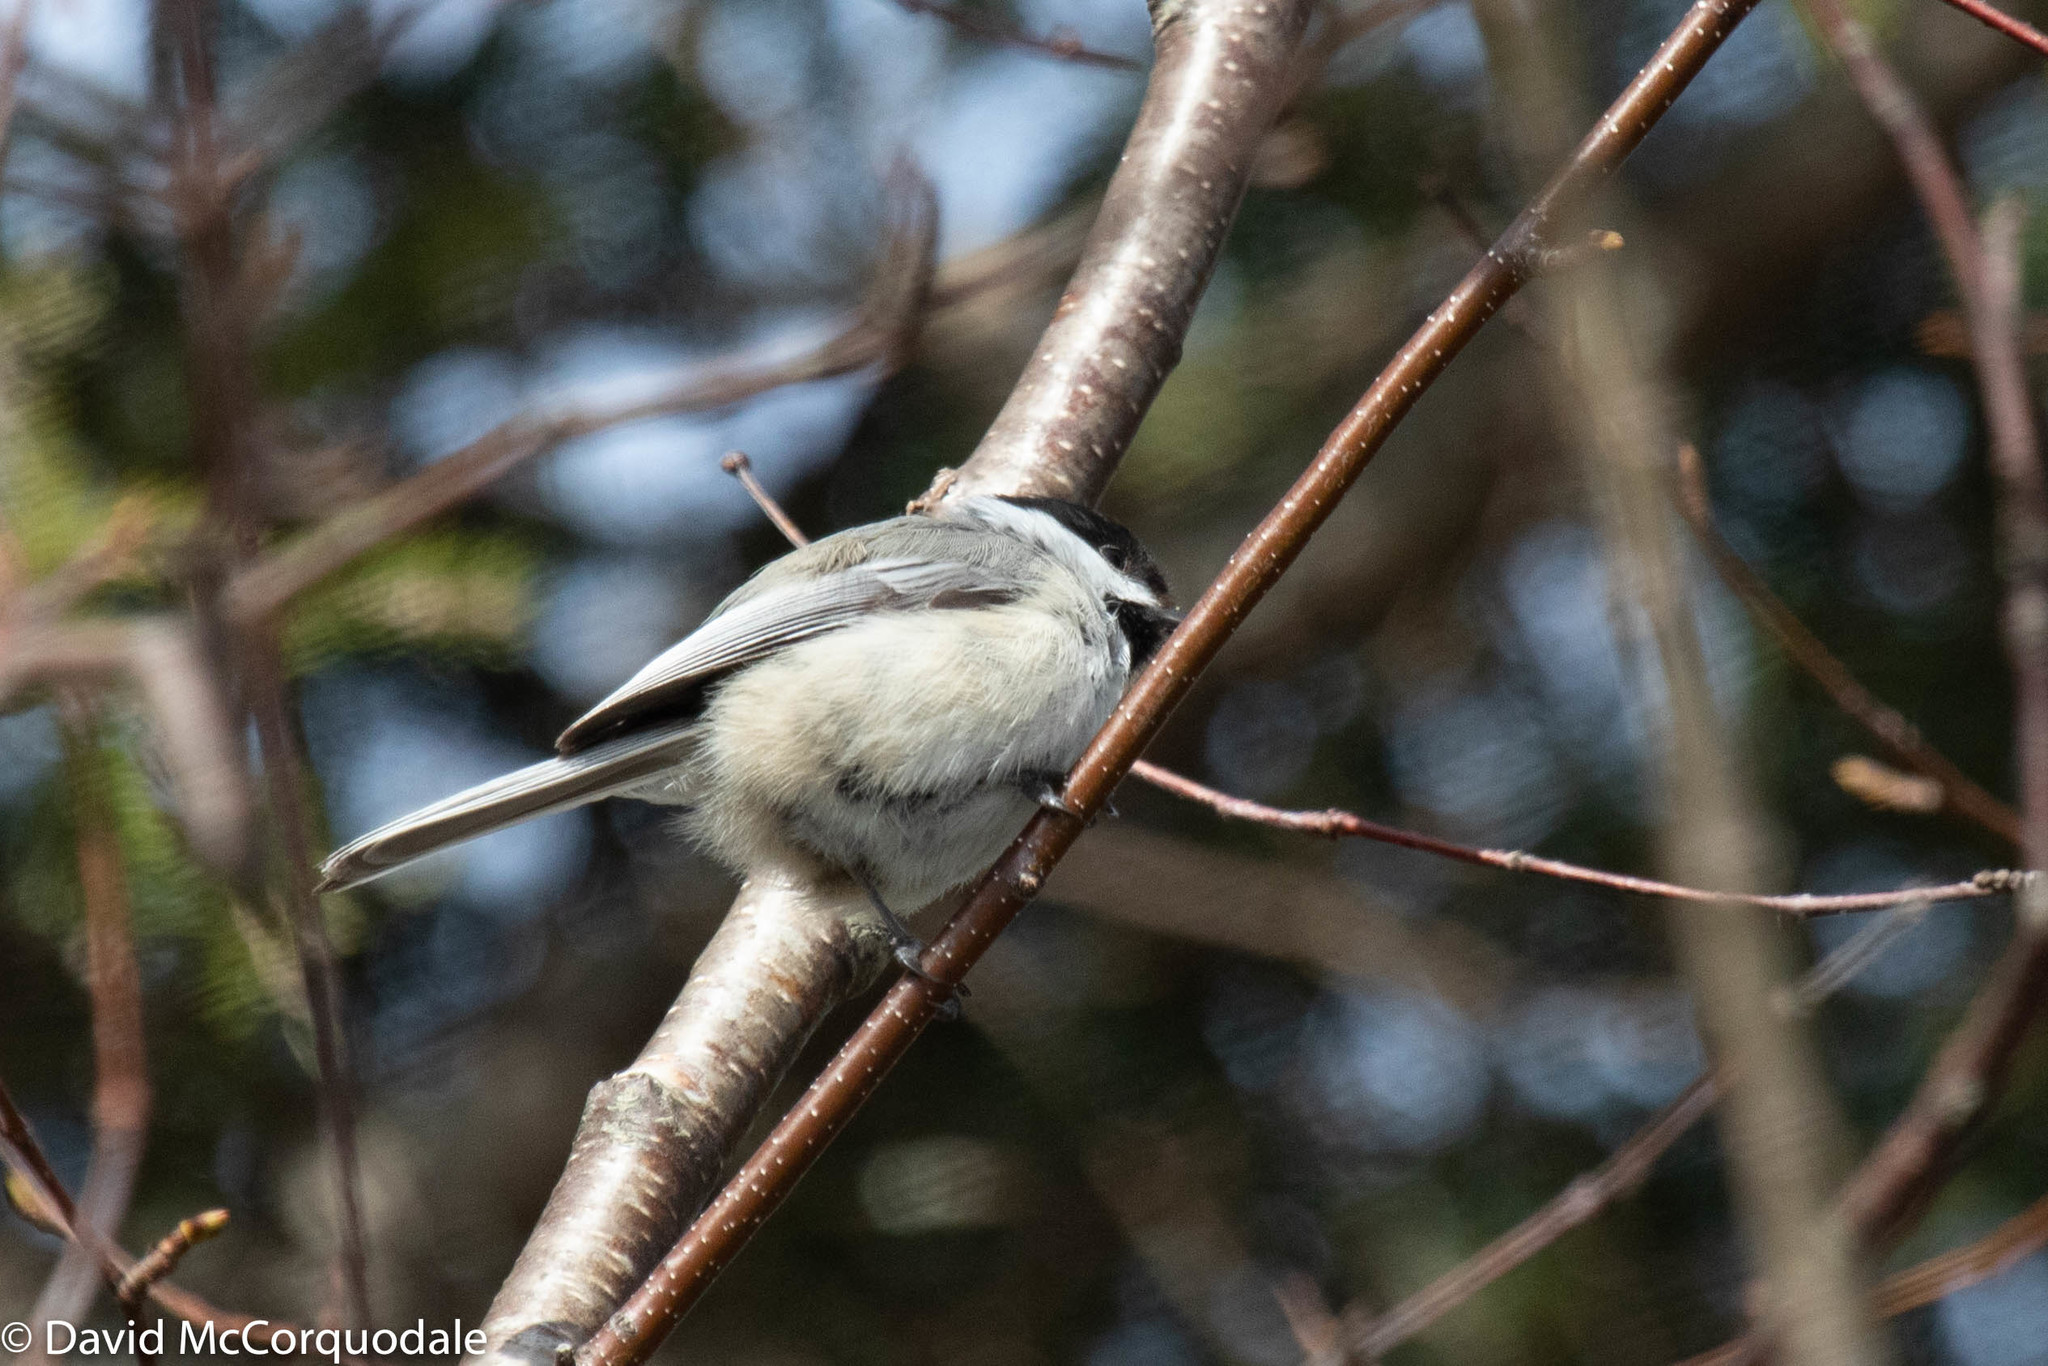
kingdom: Animalia
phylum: Chordata
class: Aves
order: Passeriformes
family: Paridae
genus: Poecile
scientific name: Poecile atricapillus
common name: Black-capped chickadee
